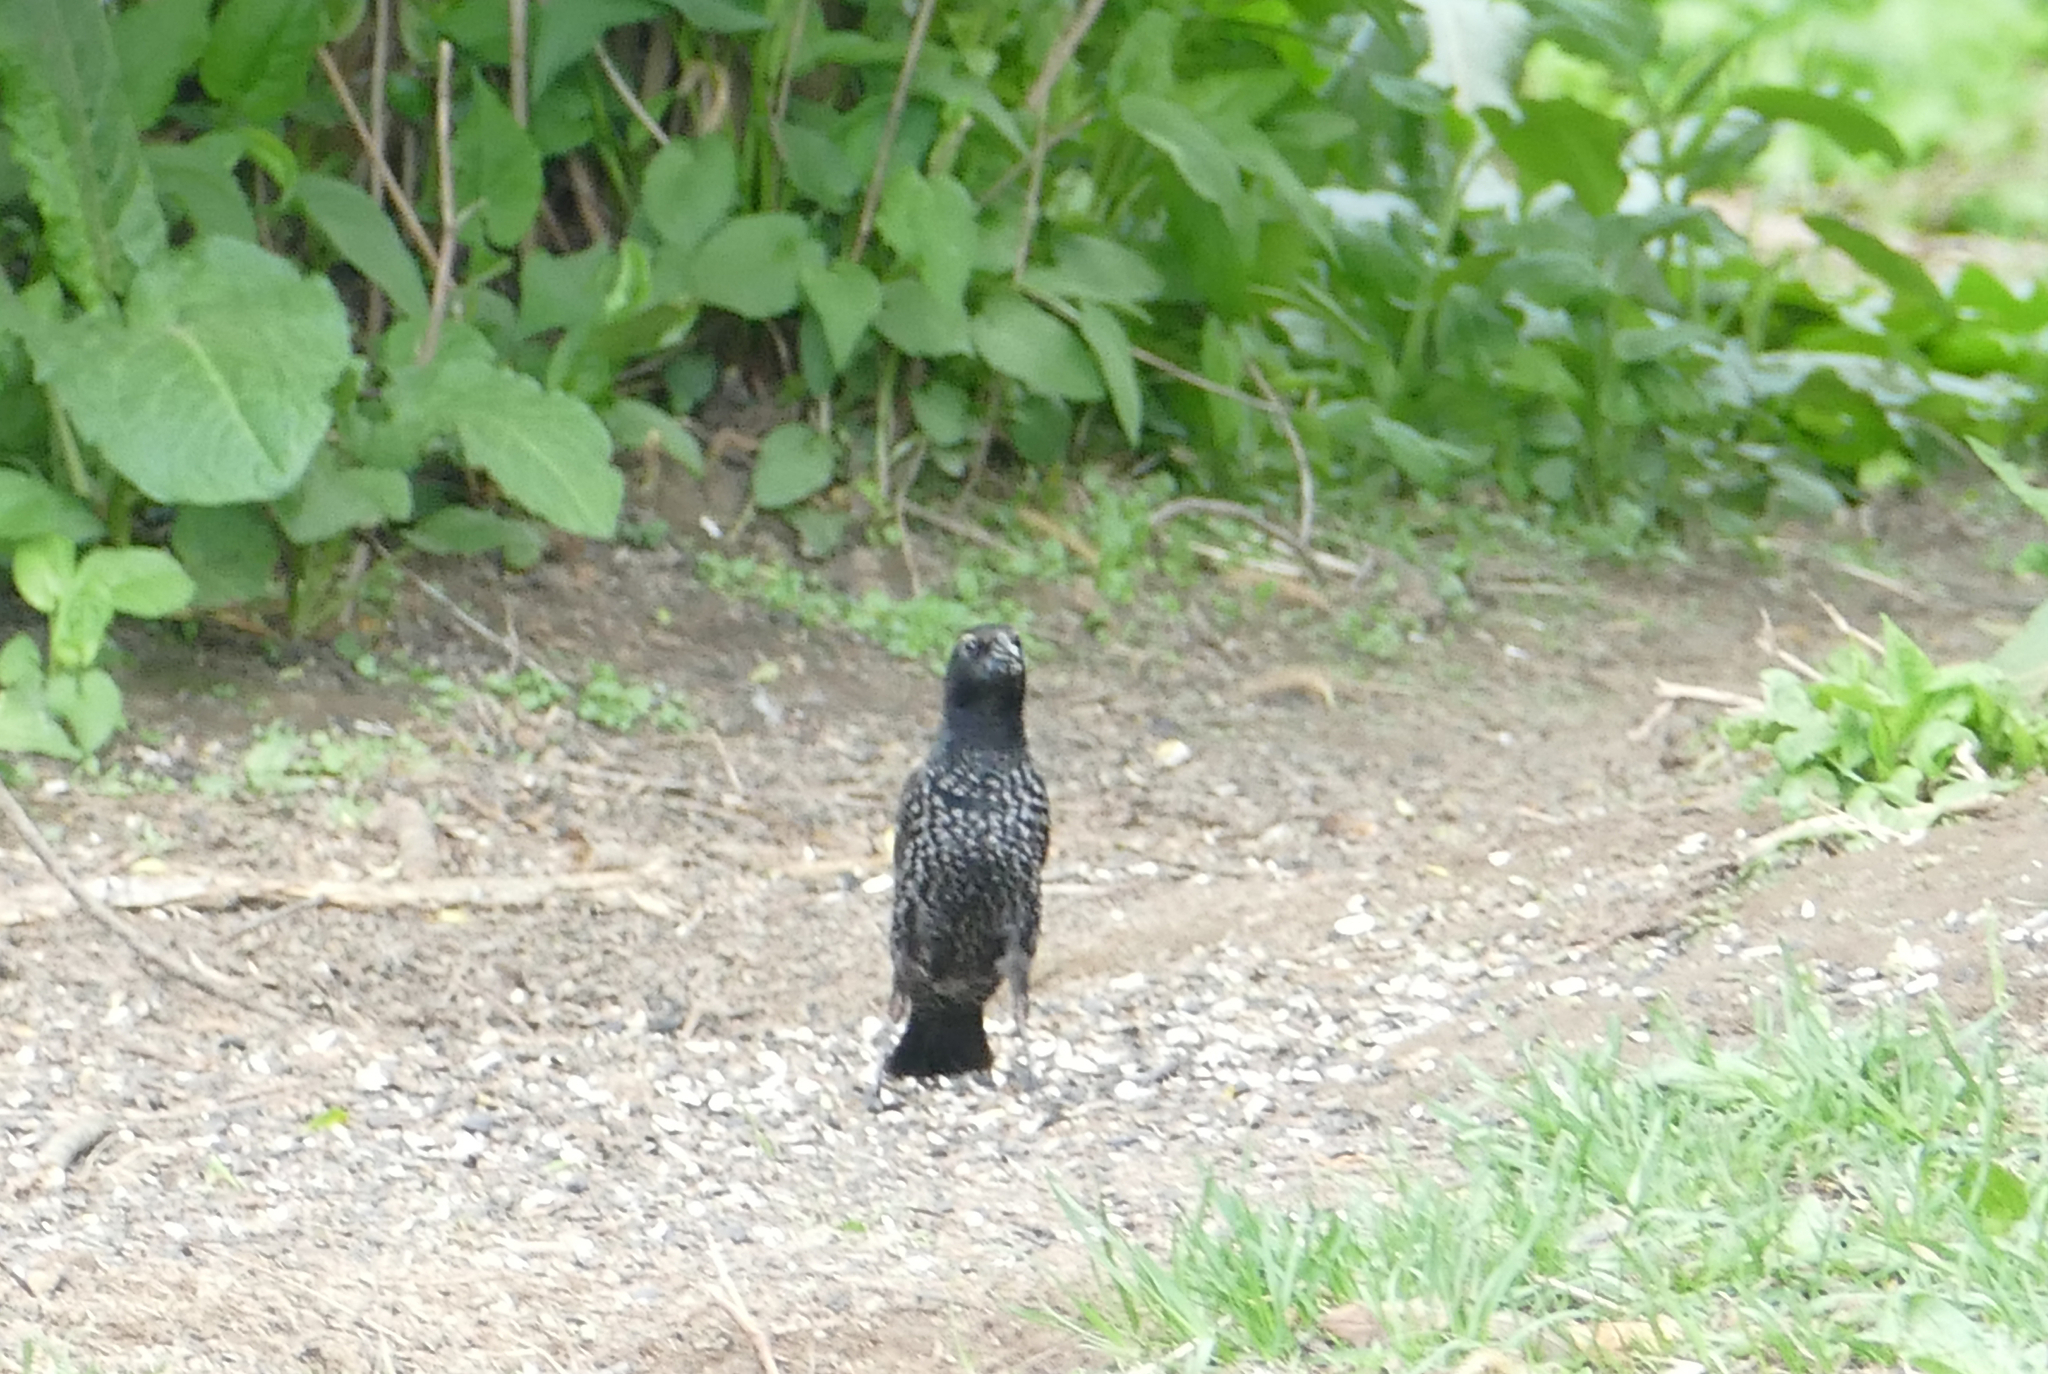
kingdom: Animalia
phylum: Chordata
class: Aves
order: Passeriformes
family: Sturnidae
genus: Sturnus
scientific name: Sturnus vulgaris
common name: Common starling
